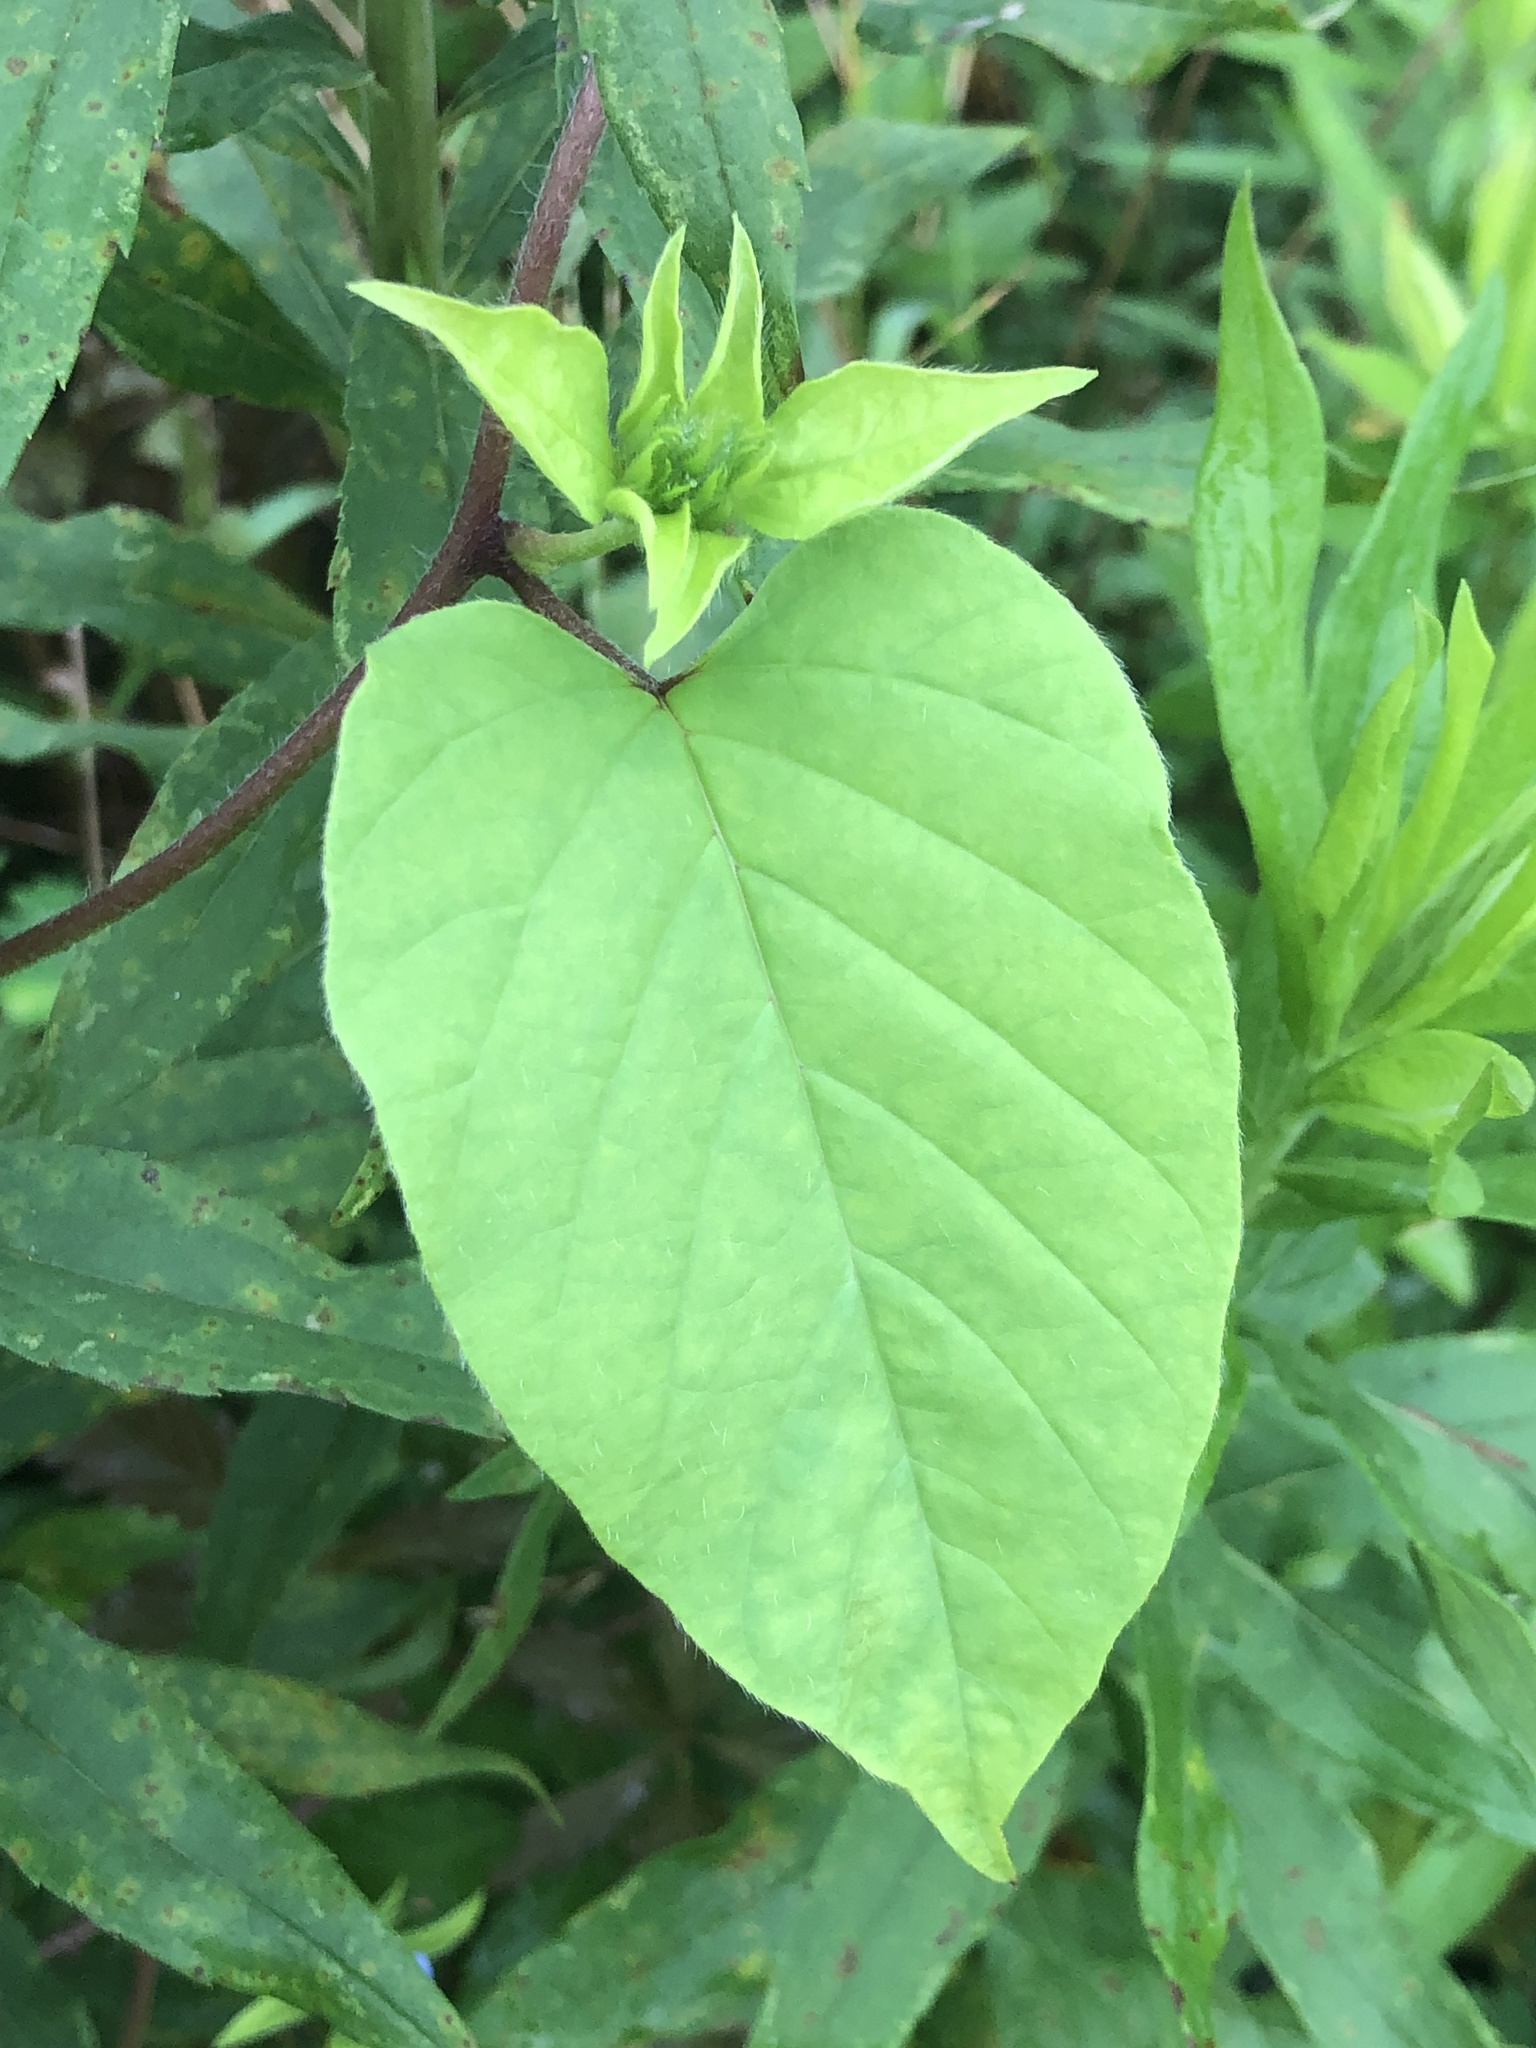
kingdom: Plantae
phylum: Tracheophyta
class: Magnoliopsida
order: Solanales
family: Convolvulaceae
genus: Jacquemontia
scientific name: Jacquemontia tamnifolia
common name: Hairy clustervine
